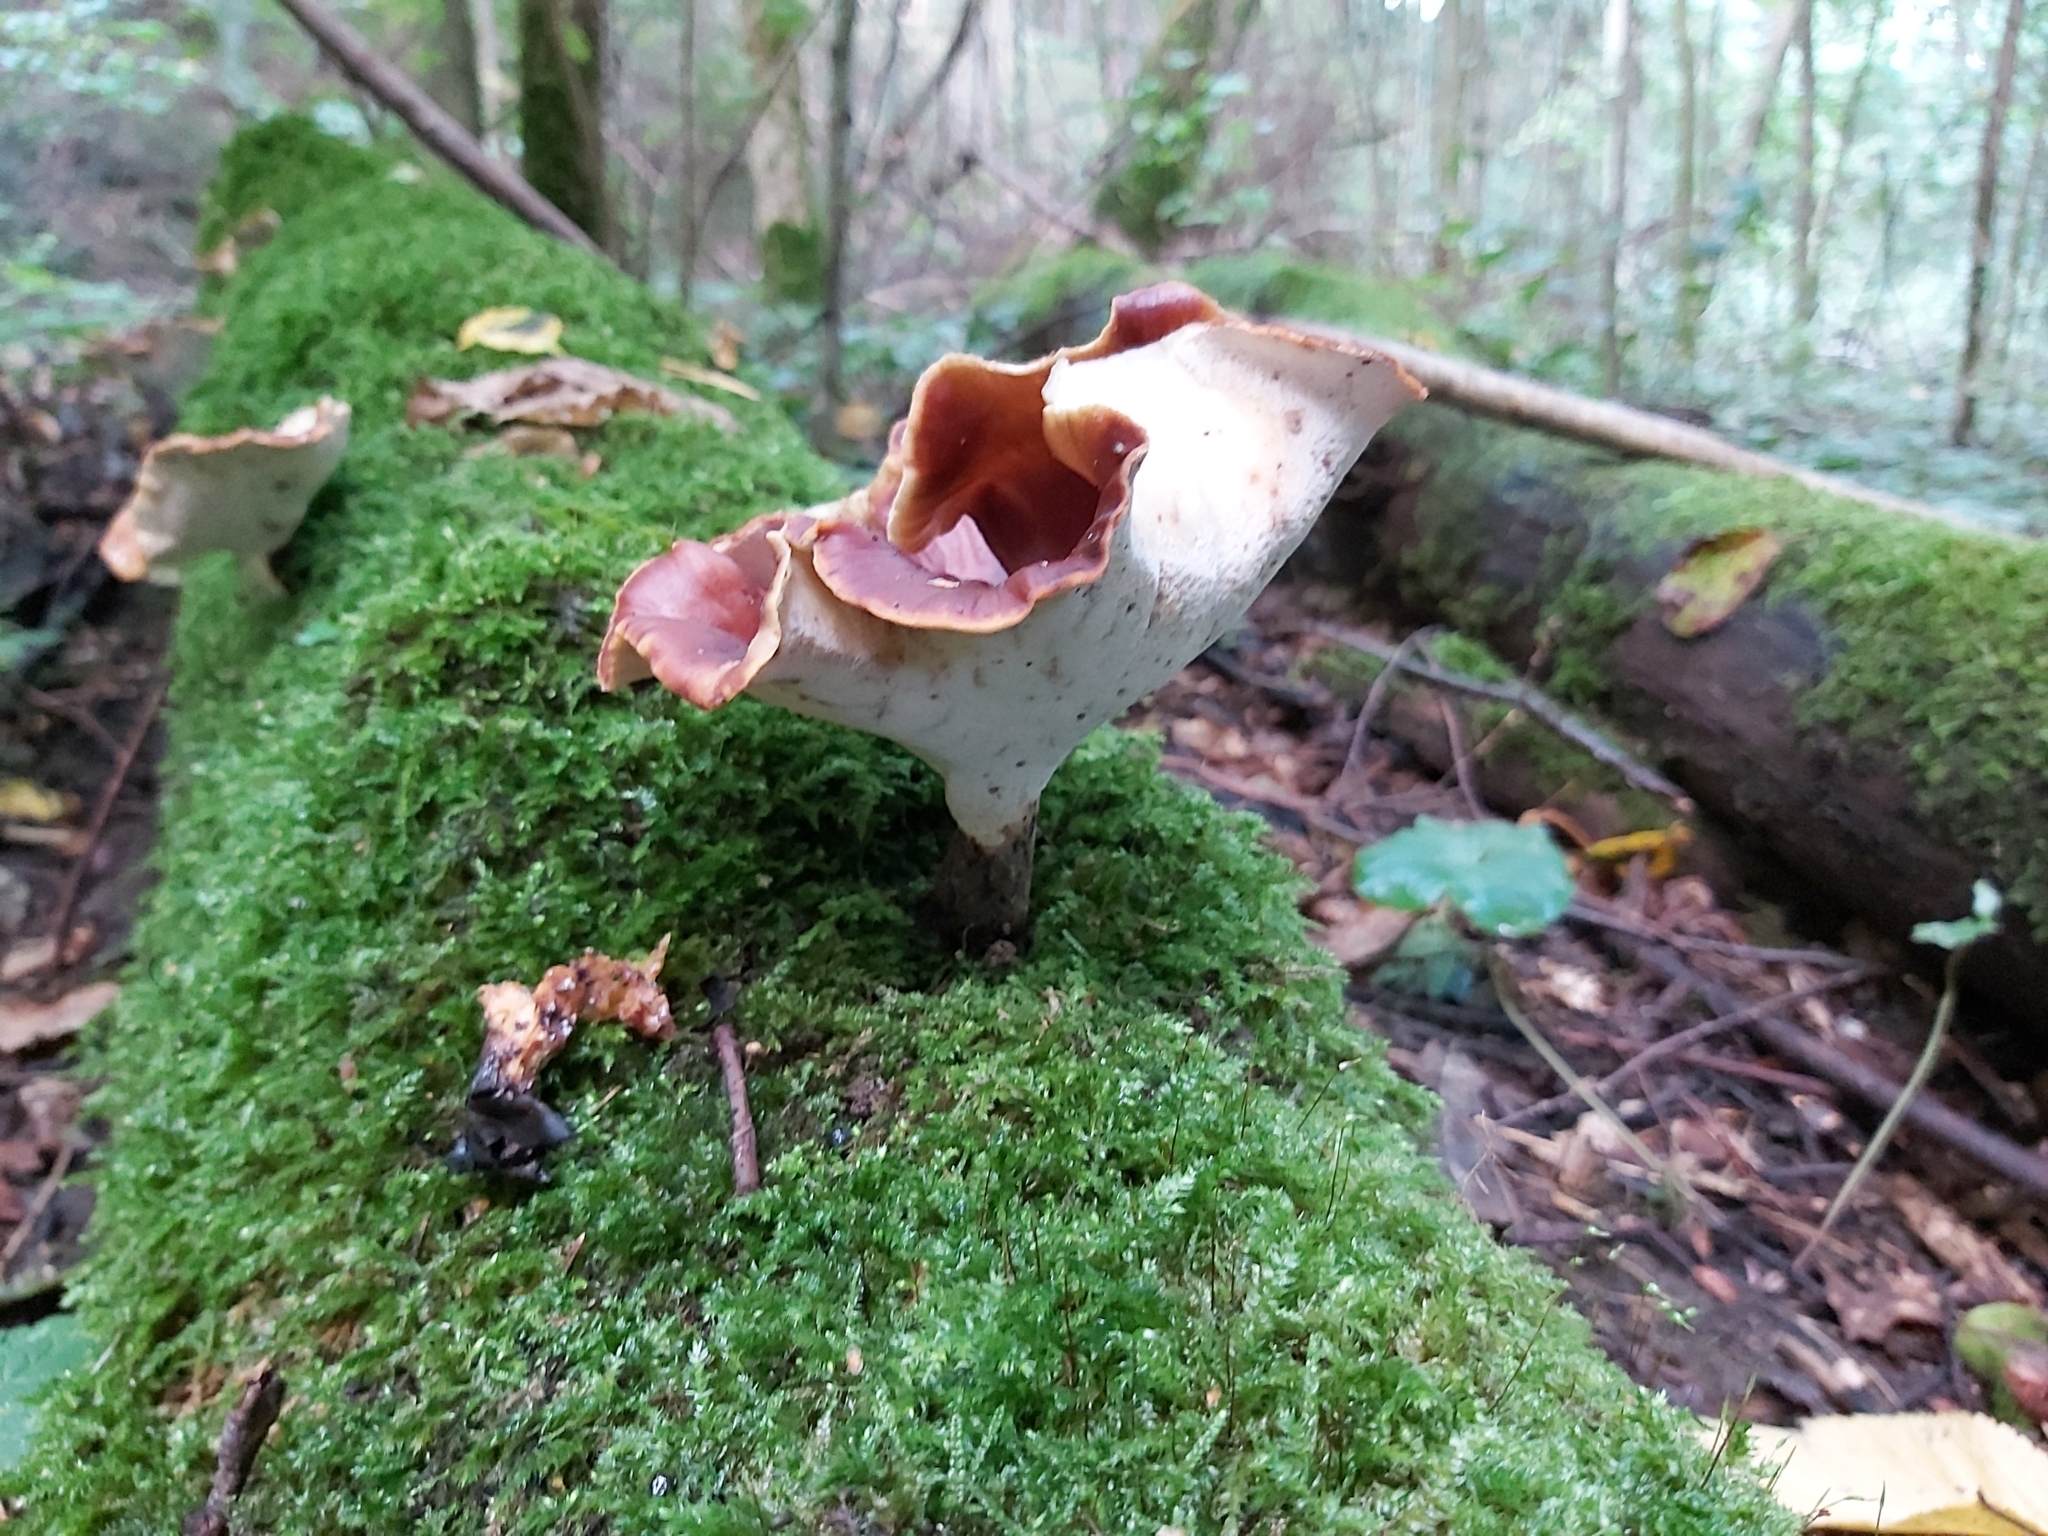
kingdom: Fungi
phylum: Basidiomycota
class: Agaricomycetes
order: Polyporales
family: Polyporaceae
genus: Picipes
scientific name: Picipes badius
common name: Bay polypore
